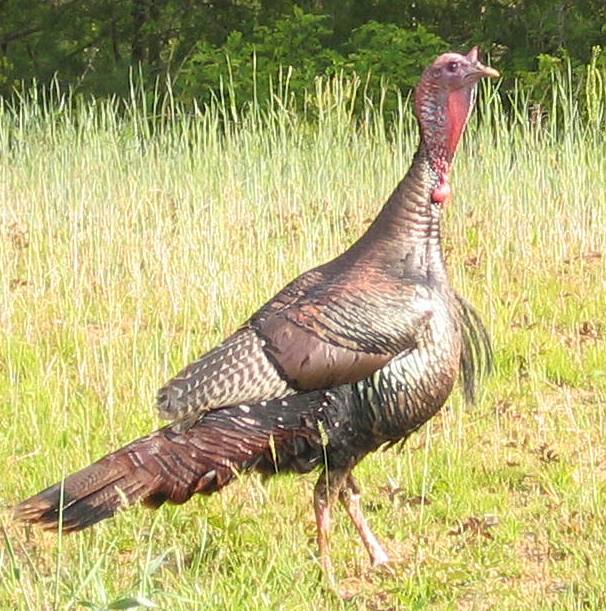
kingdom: Animalia
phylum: Chordata
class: Aves
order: Galliformes
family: Phasianidae
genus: Meleagris
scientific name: Meleagris gallopavo
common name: Wild turkey
